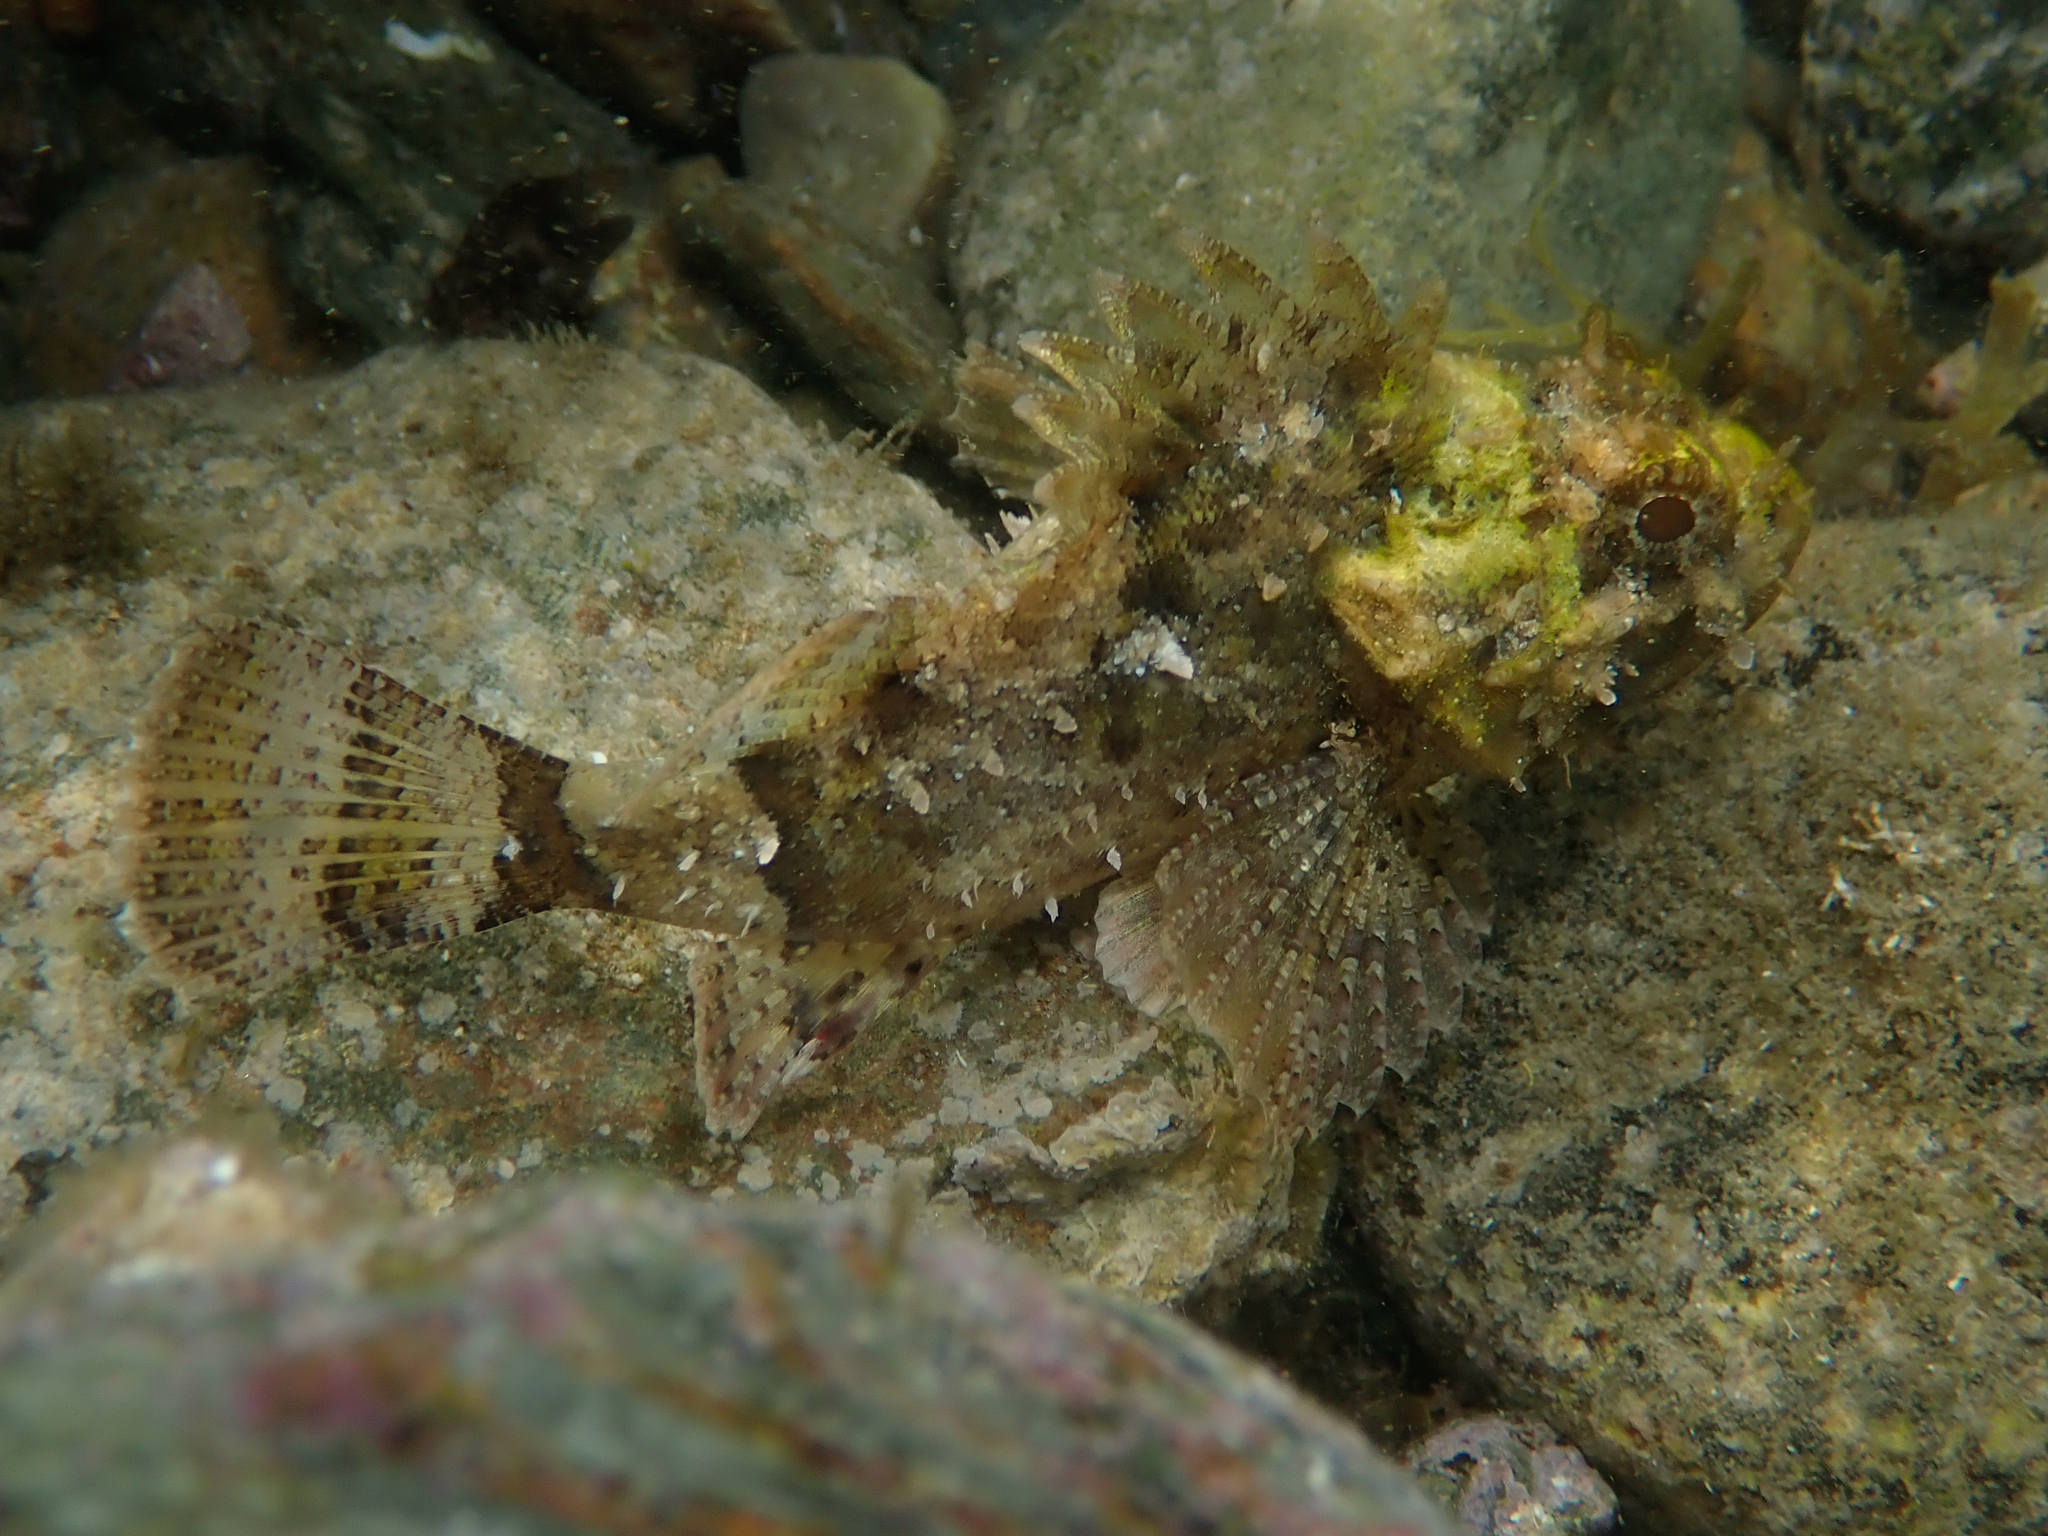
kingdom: Animalia
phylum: Chordata
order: Scorpaeniformes
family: Scorpaenidae
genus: Scorpaena
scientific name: Scorpaena porcus
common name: Black scorpionfish
